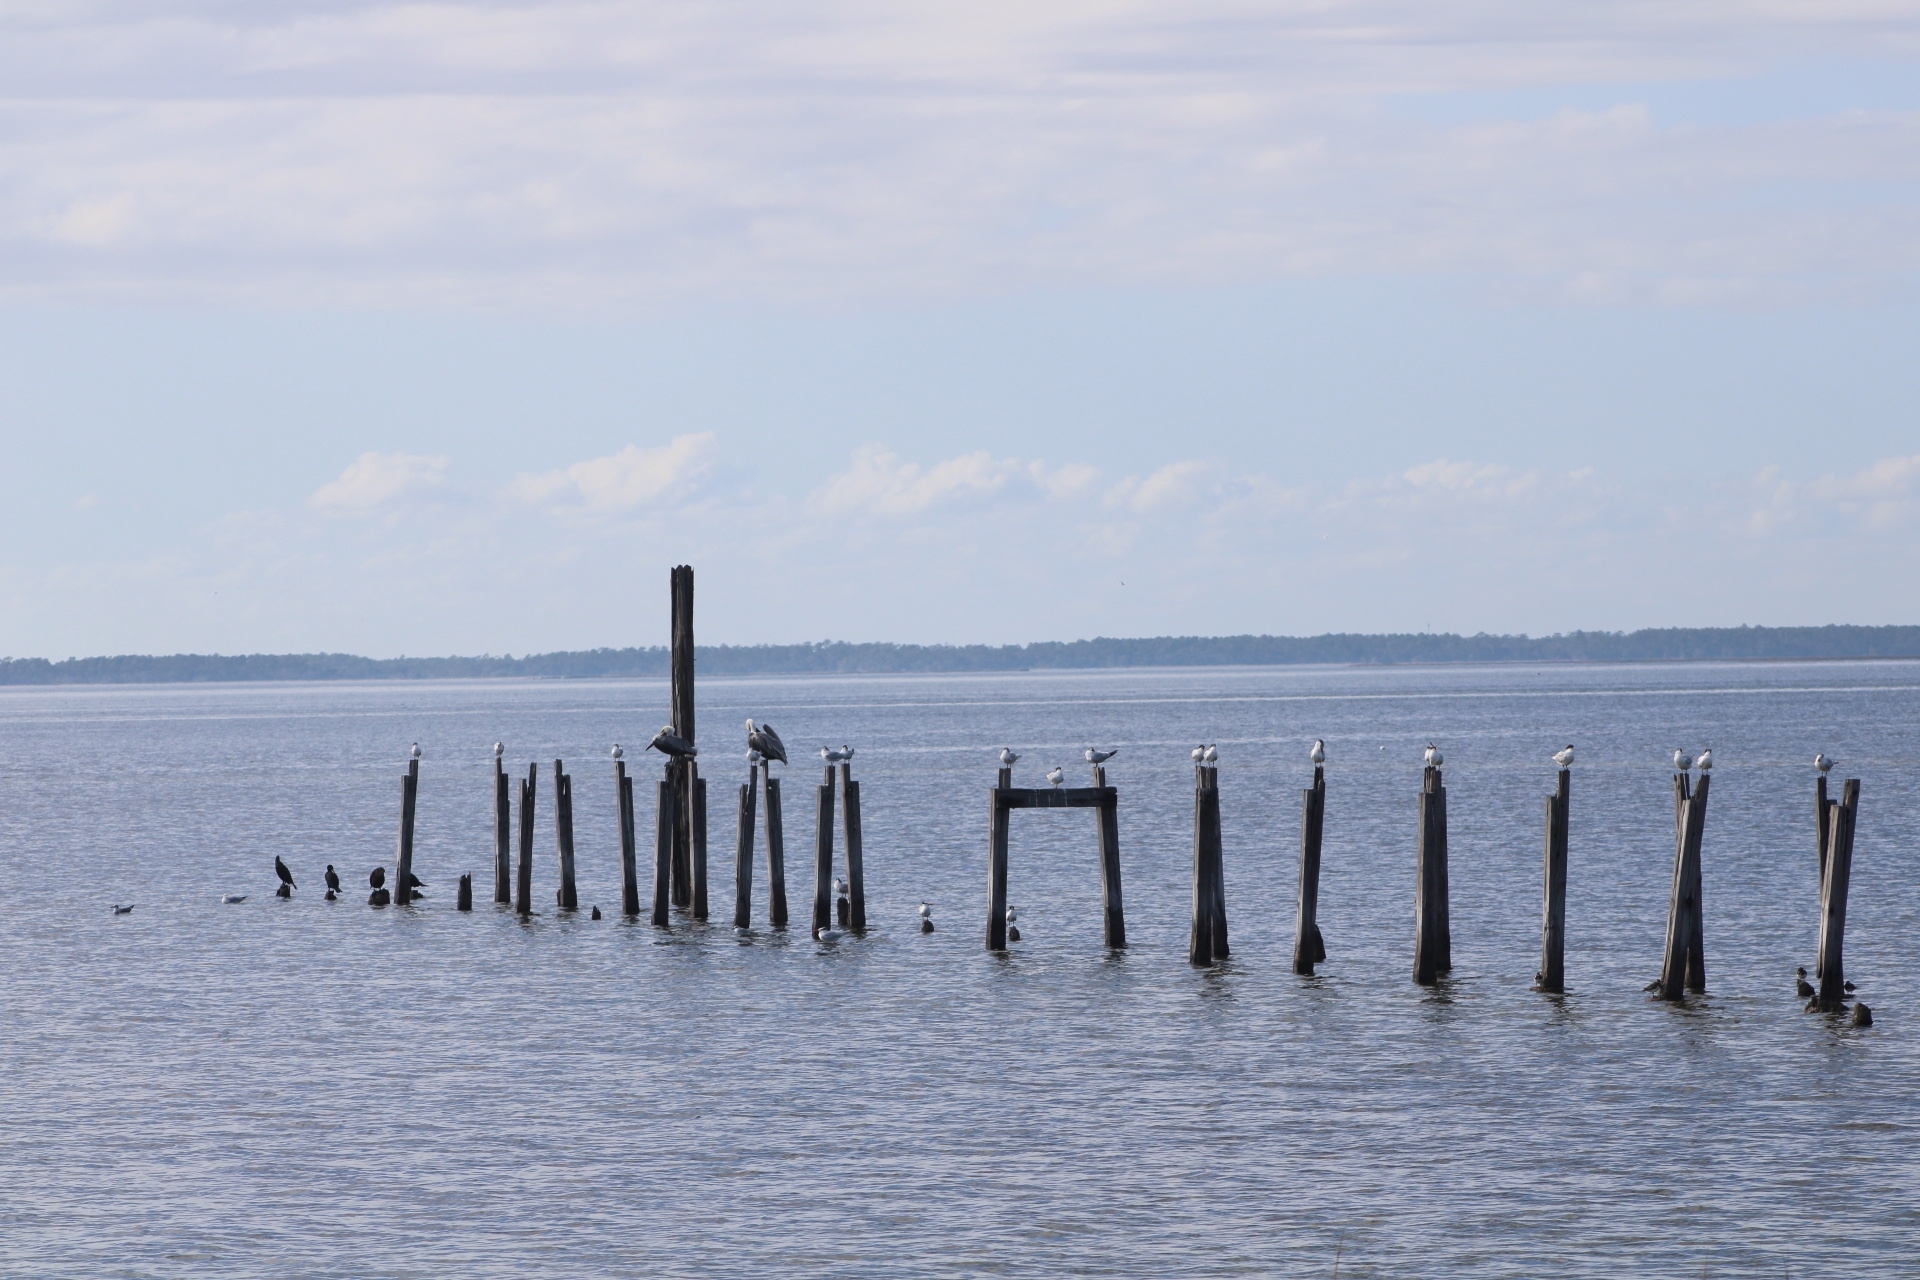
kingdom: Animalia
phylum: Chordata
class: Aves
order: Pelecaniformes
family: Pelecanidae
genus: Pelecanus
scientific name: Pelecanus occidentalis
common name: Brown pelican
